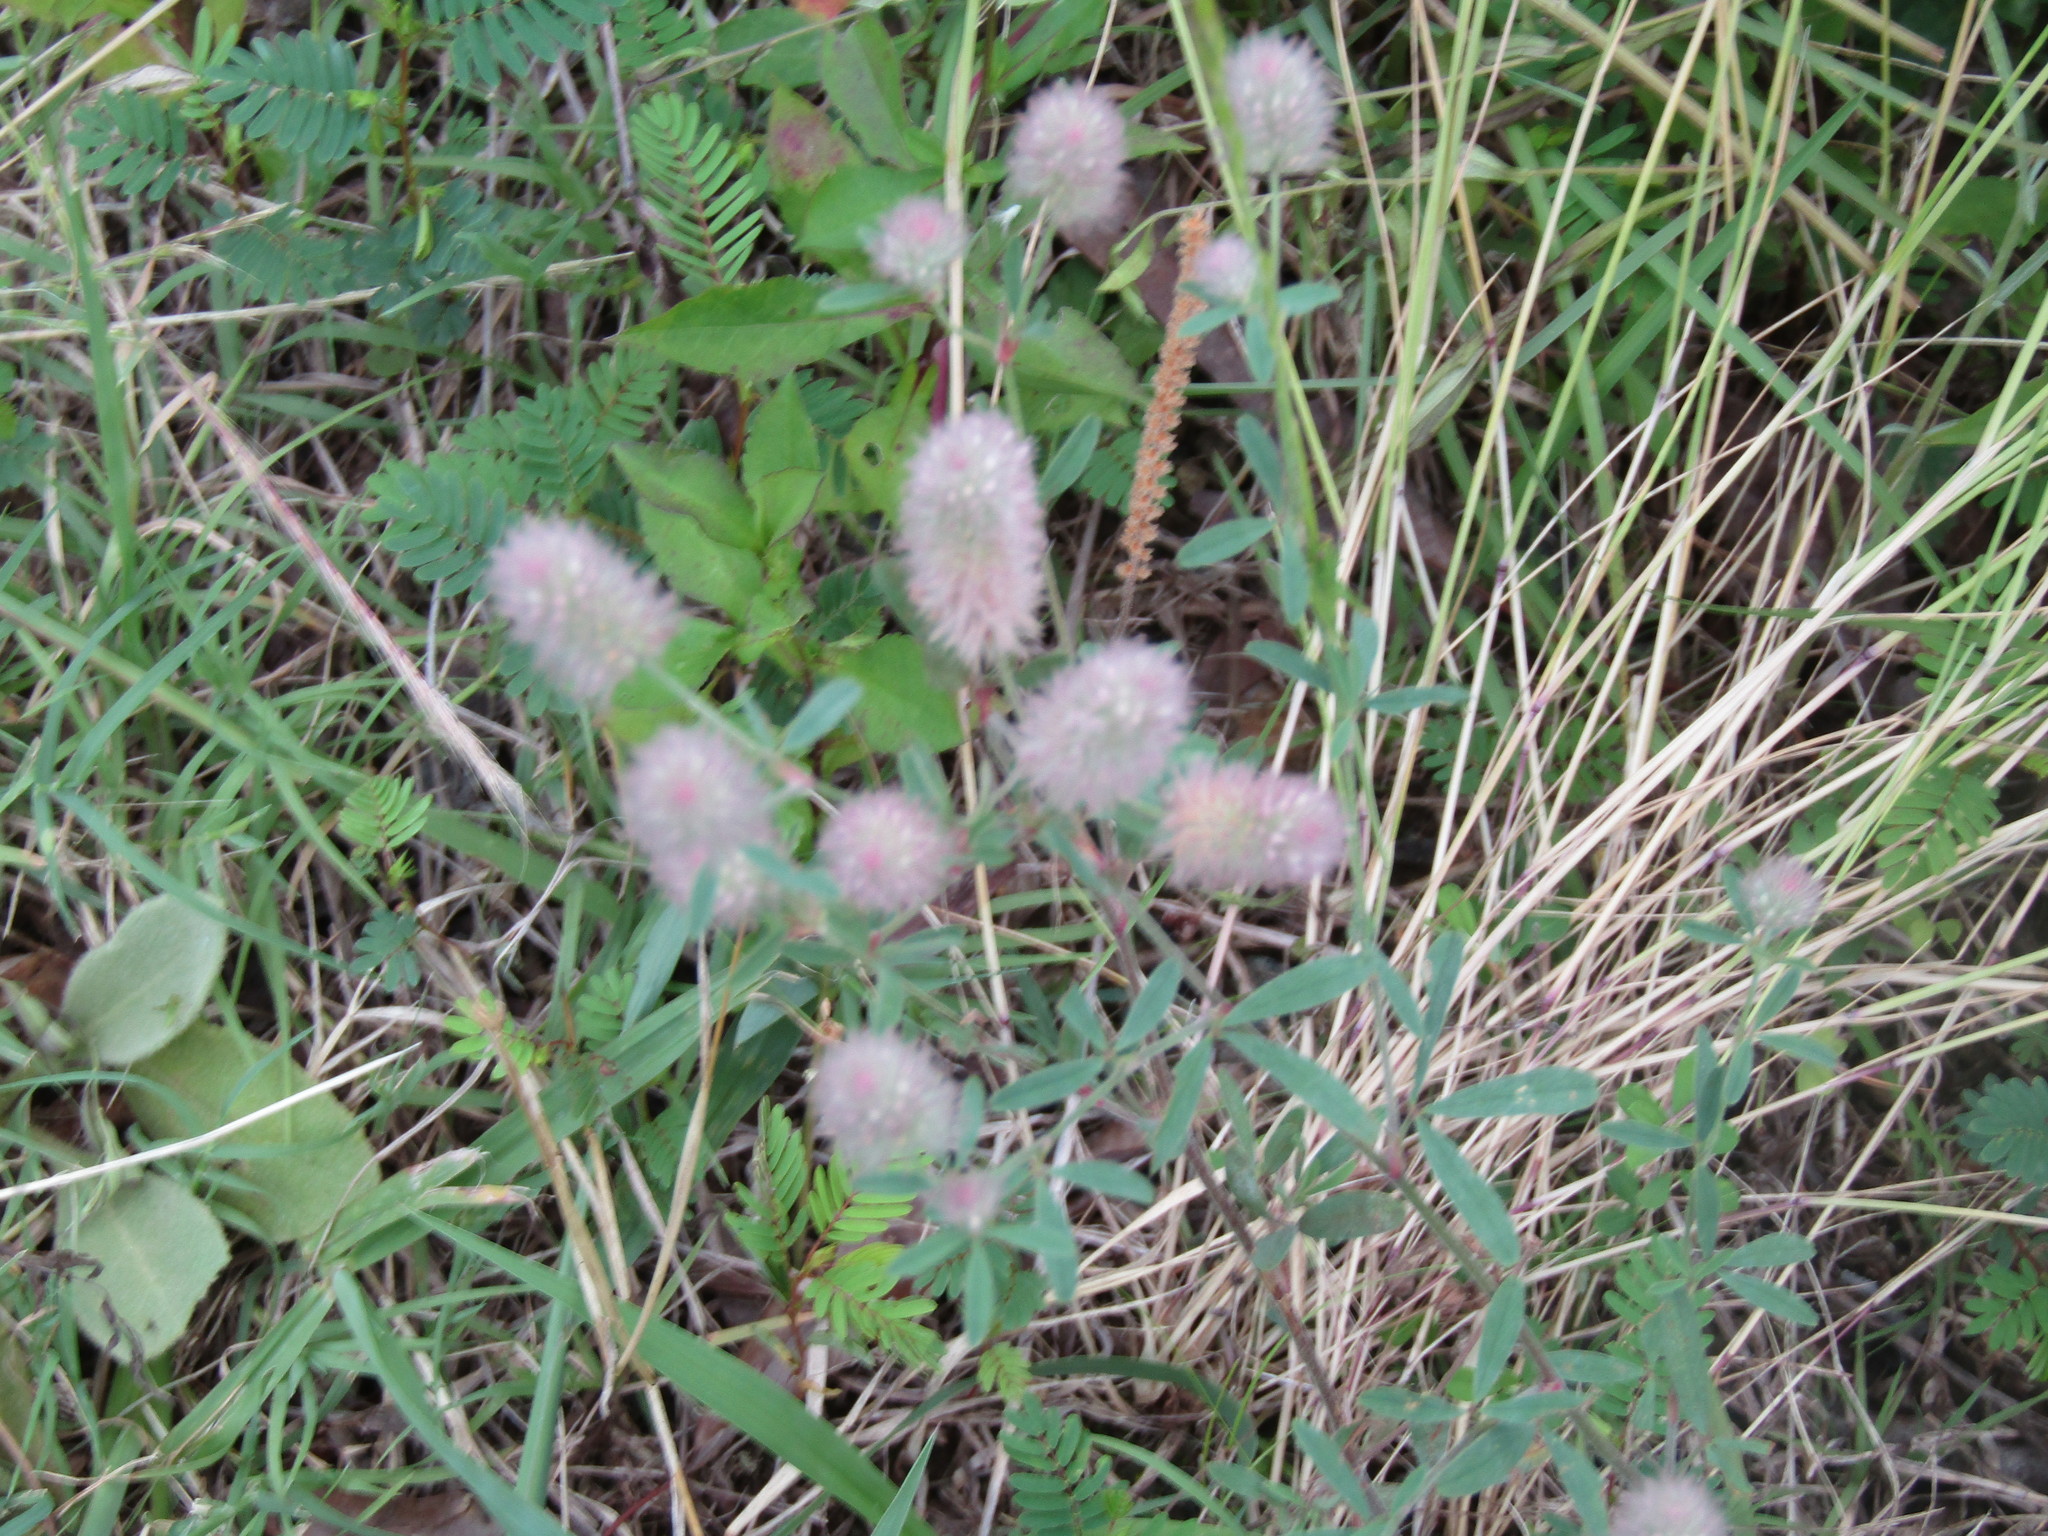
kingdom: Plantae
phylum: Tracheophyta
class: Magnoliopsida
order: Fabales
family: Fabaceae
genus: Trifolium
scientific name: Trifolium arvense
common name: Hare's-foot clover
